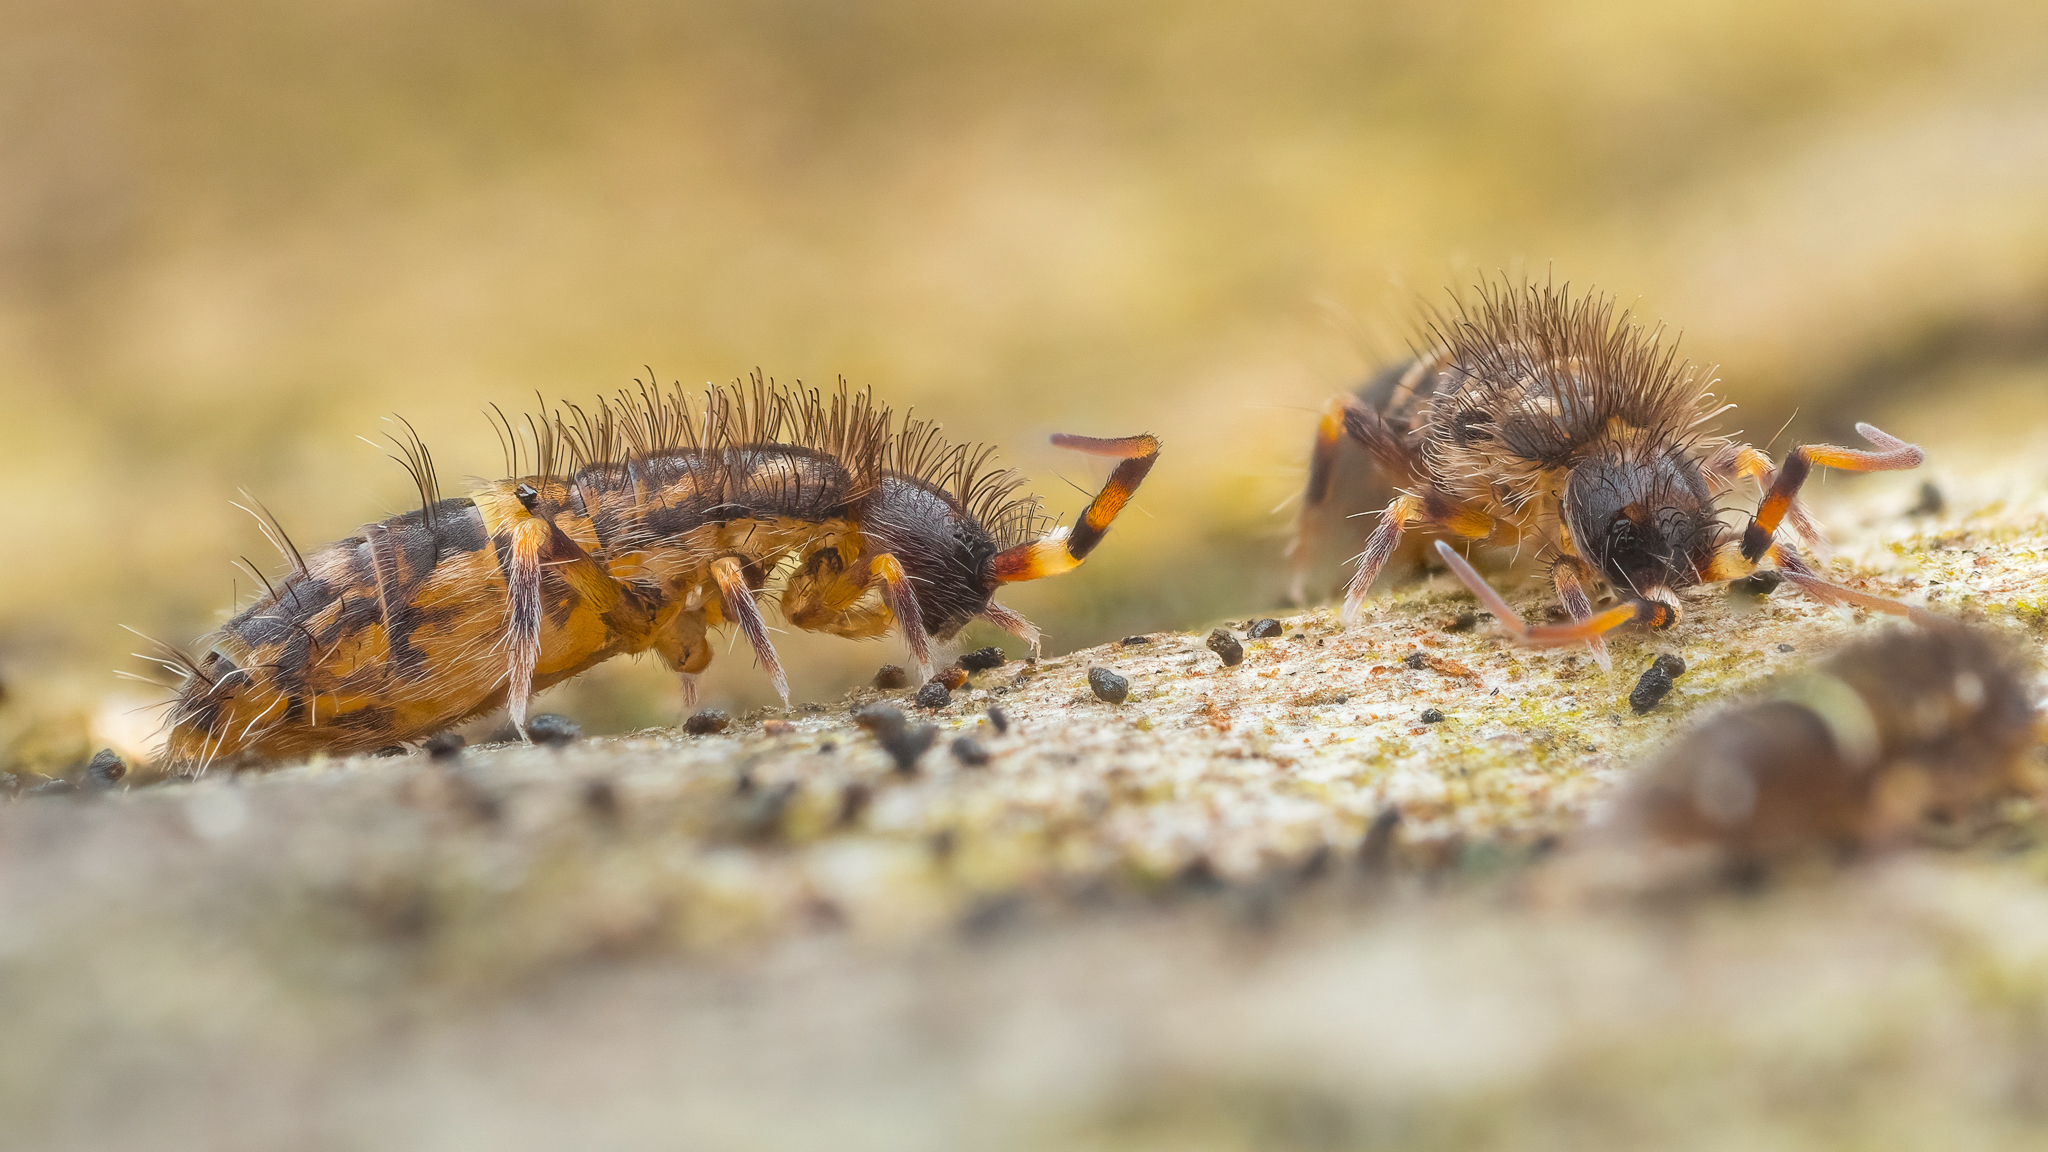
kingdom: Animalia
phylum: Arthropoda
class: Collembola
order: Entomobryomorpha
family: Orchesellidae
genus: Orchesella
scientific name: Orchesella cincta
